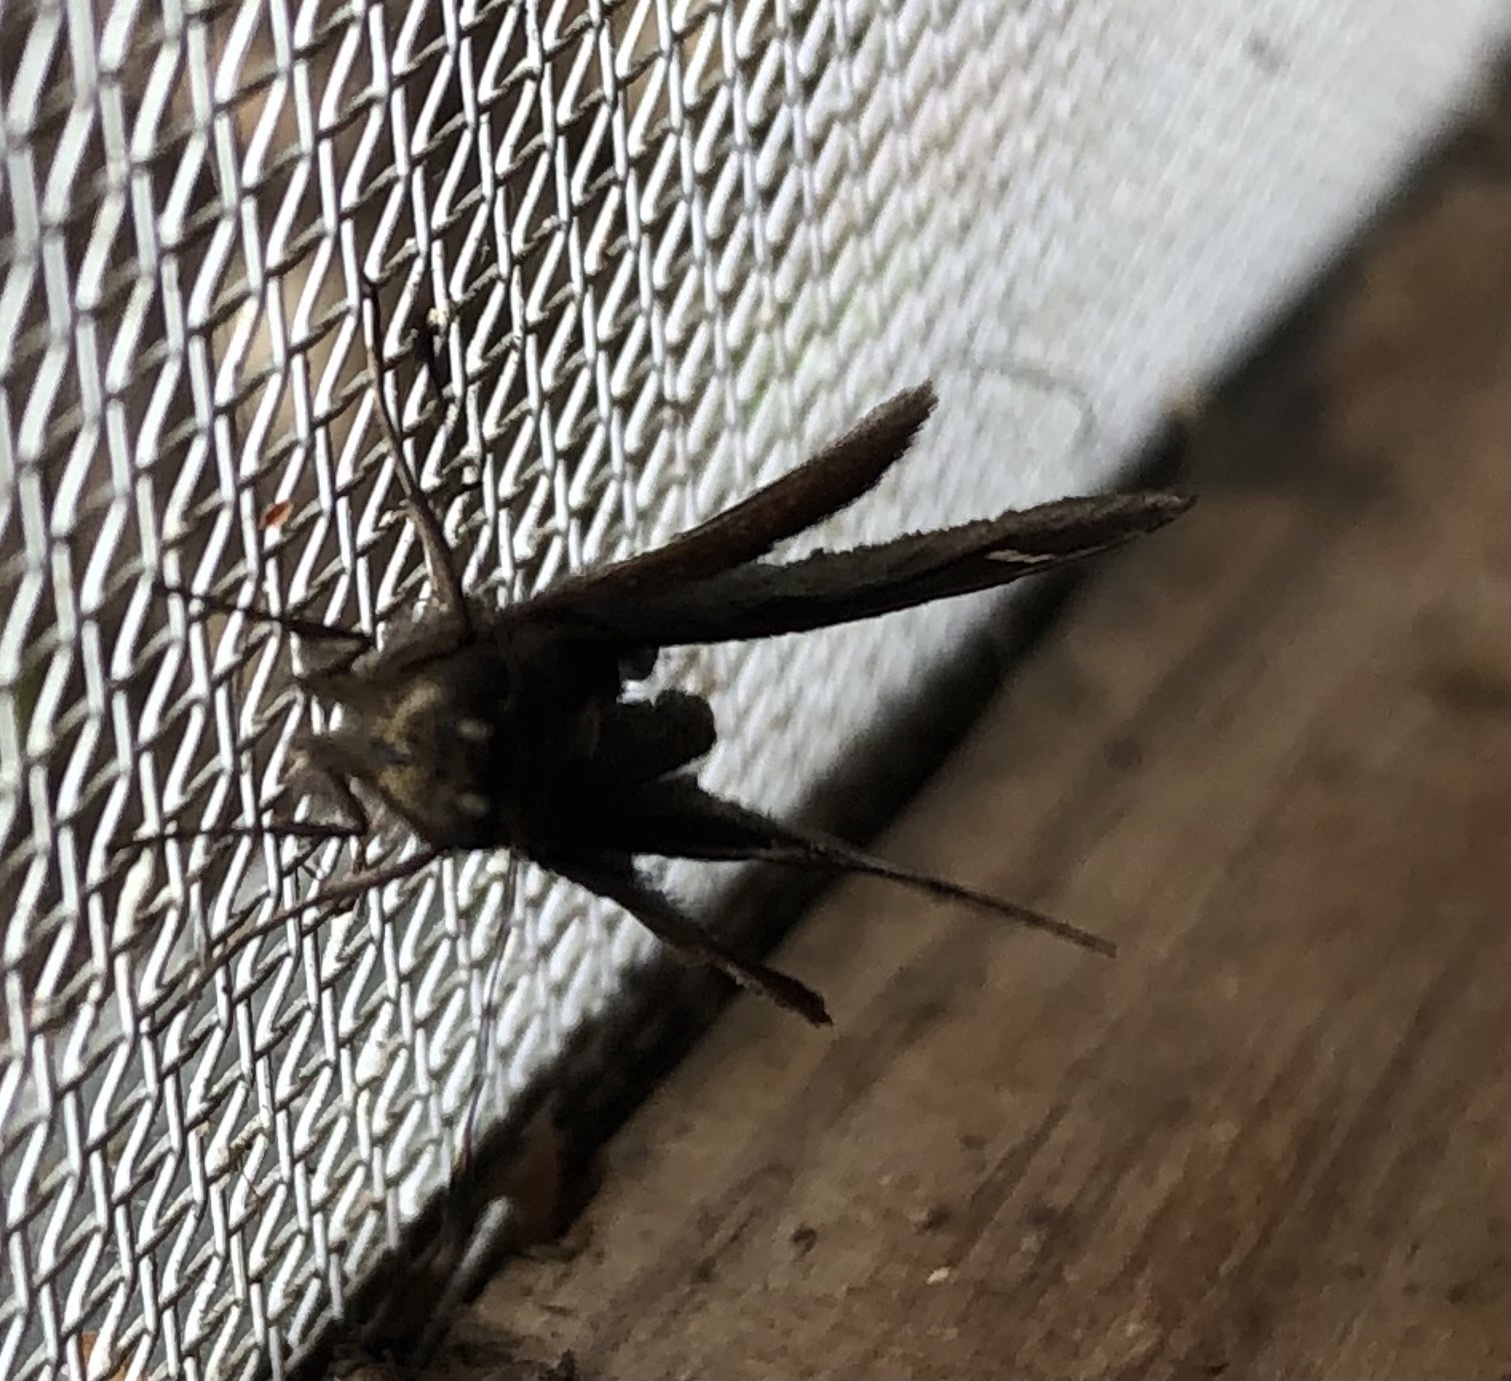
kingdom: Animalia
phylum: Arthropoda
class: Insecta
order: Lepidoptera
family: Hesperiidae
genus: Lerema
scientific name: Lerema accius
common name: Clouded skipper
